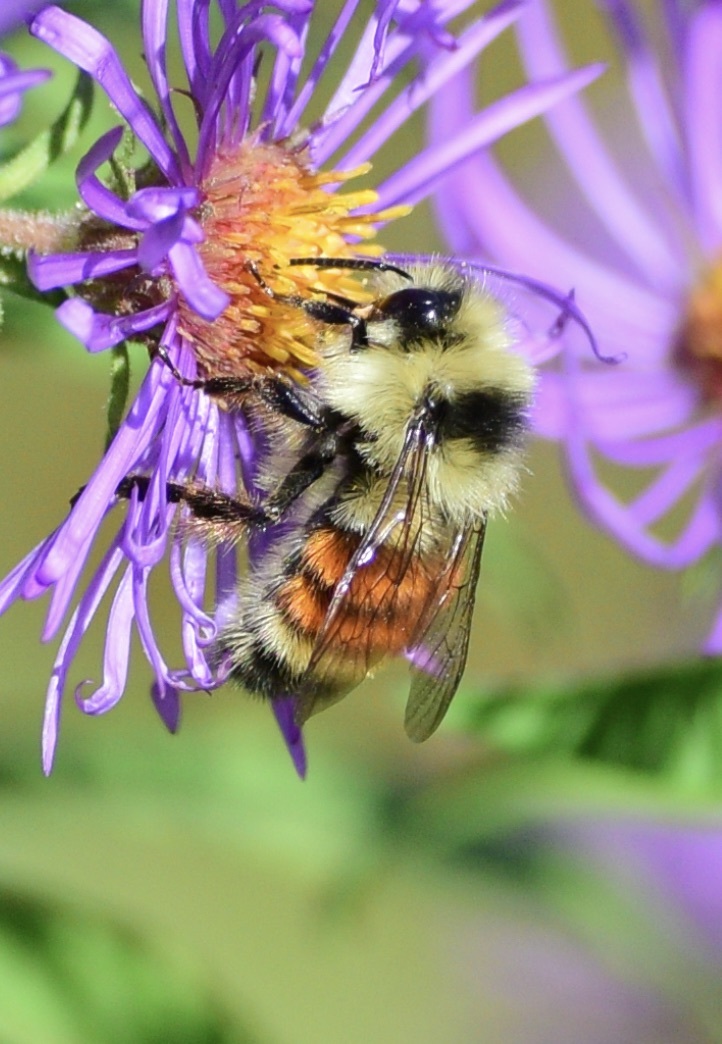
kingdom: Animalia
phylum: Arthropoda
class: Insecta
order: Hymenoptera
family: Apidae
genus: Bombus
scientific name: Bombus ternarius
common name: Tri-colored bumble bee
